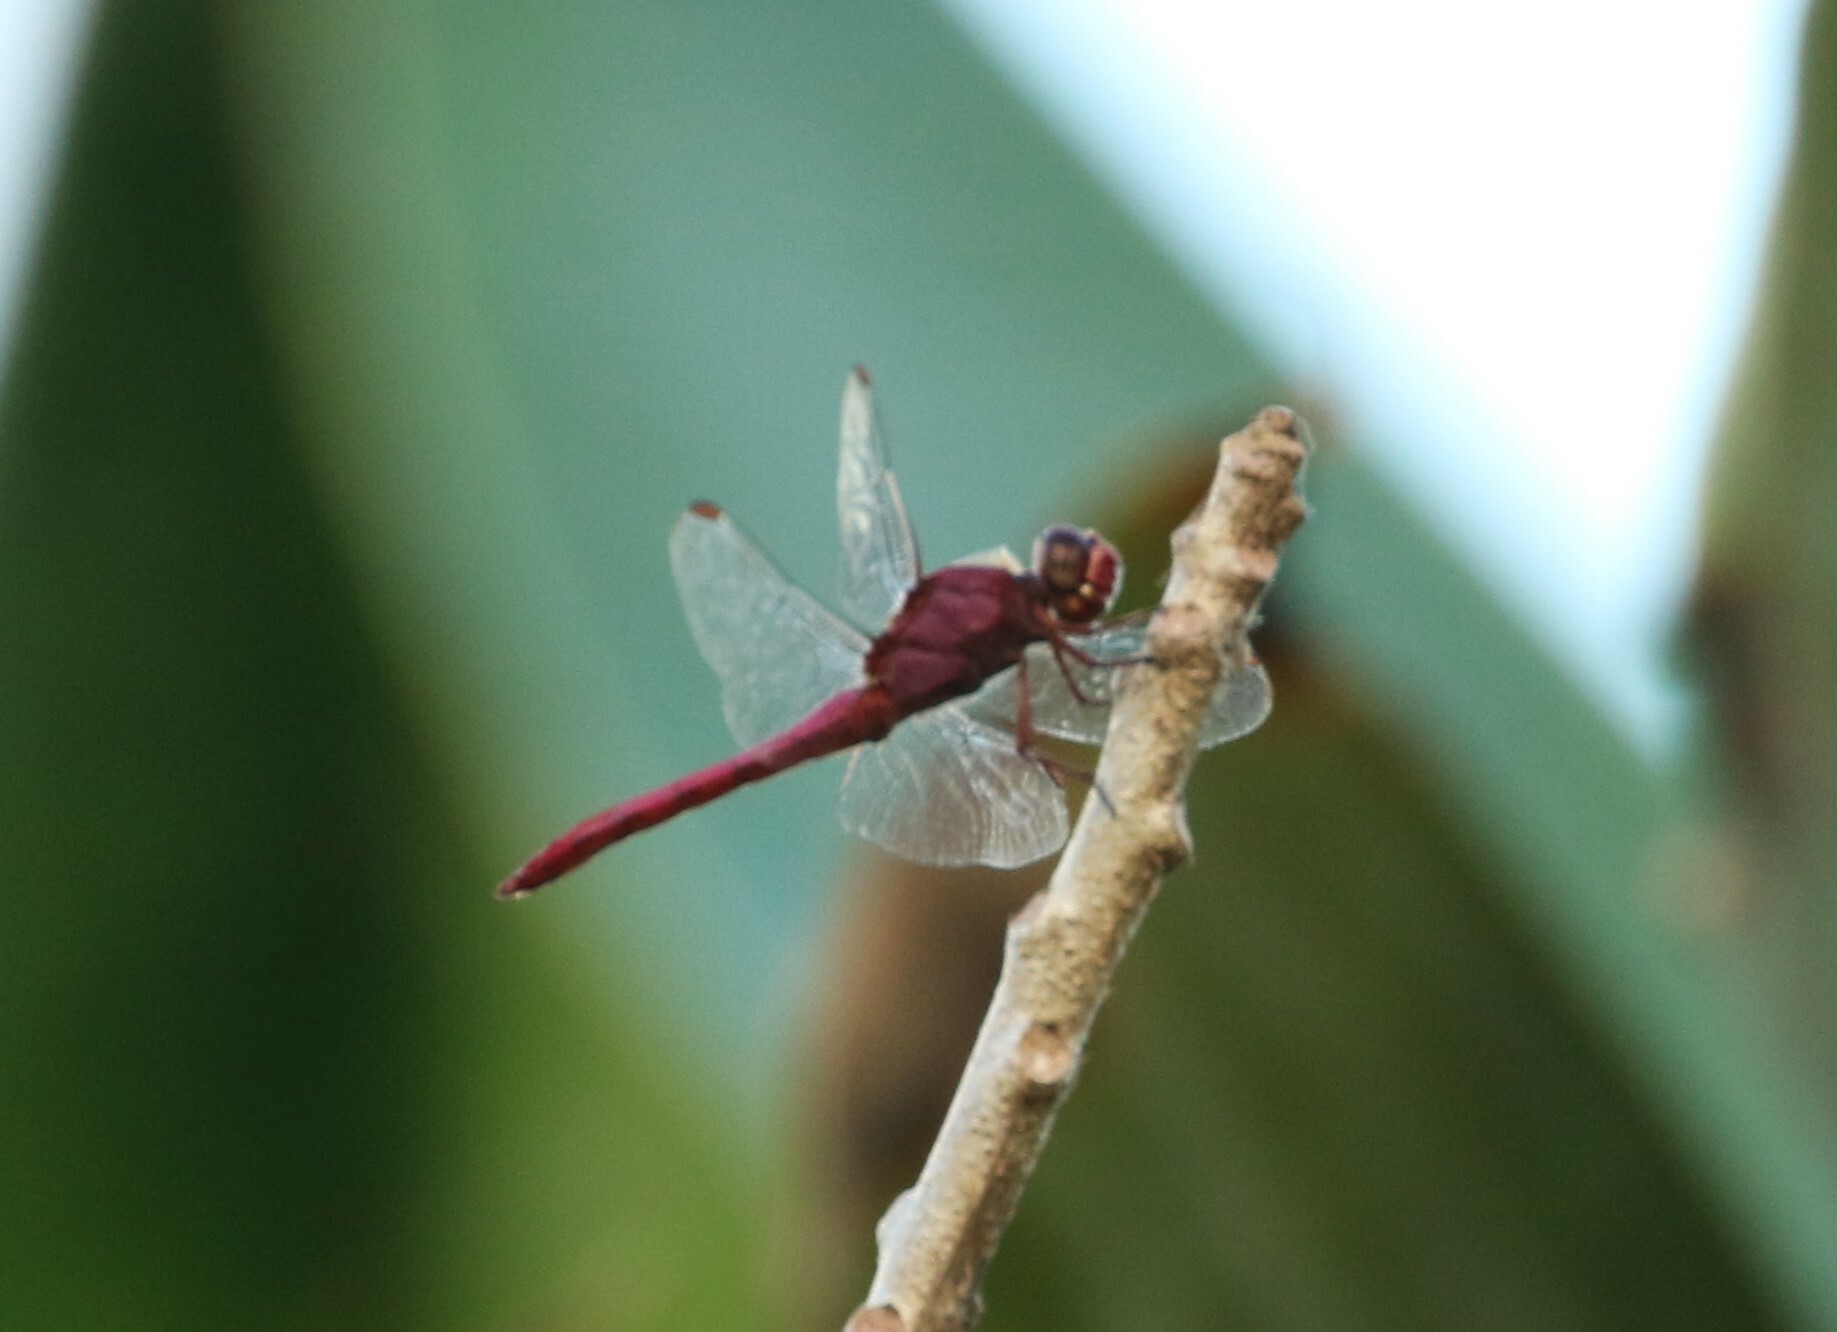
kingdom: Animalia
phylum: Arthropoda
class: Insecta
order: Odonata
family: Libellulidae
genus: Orthemis
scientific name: Orthemis discolor
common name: Carmine skimmer
